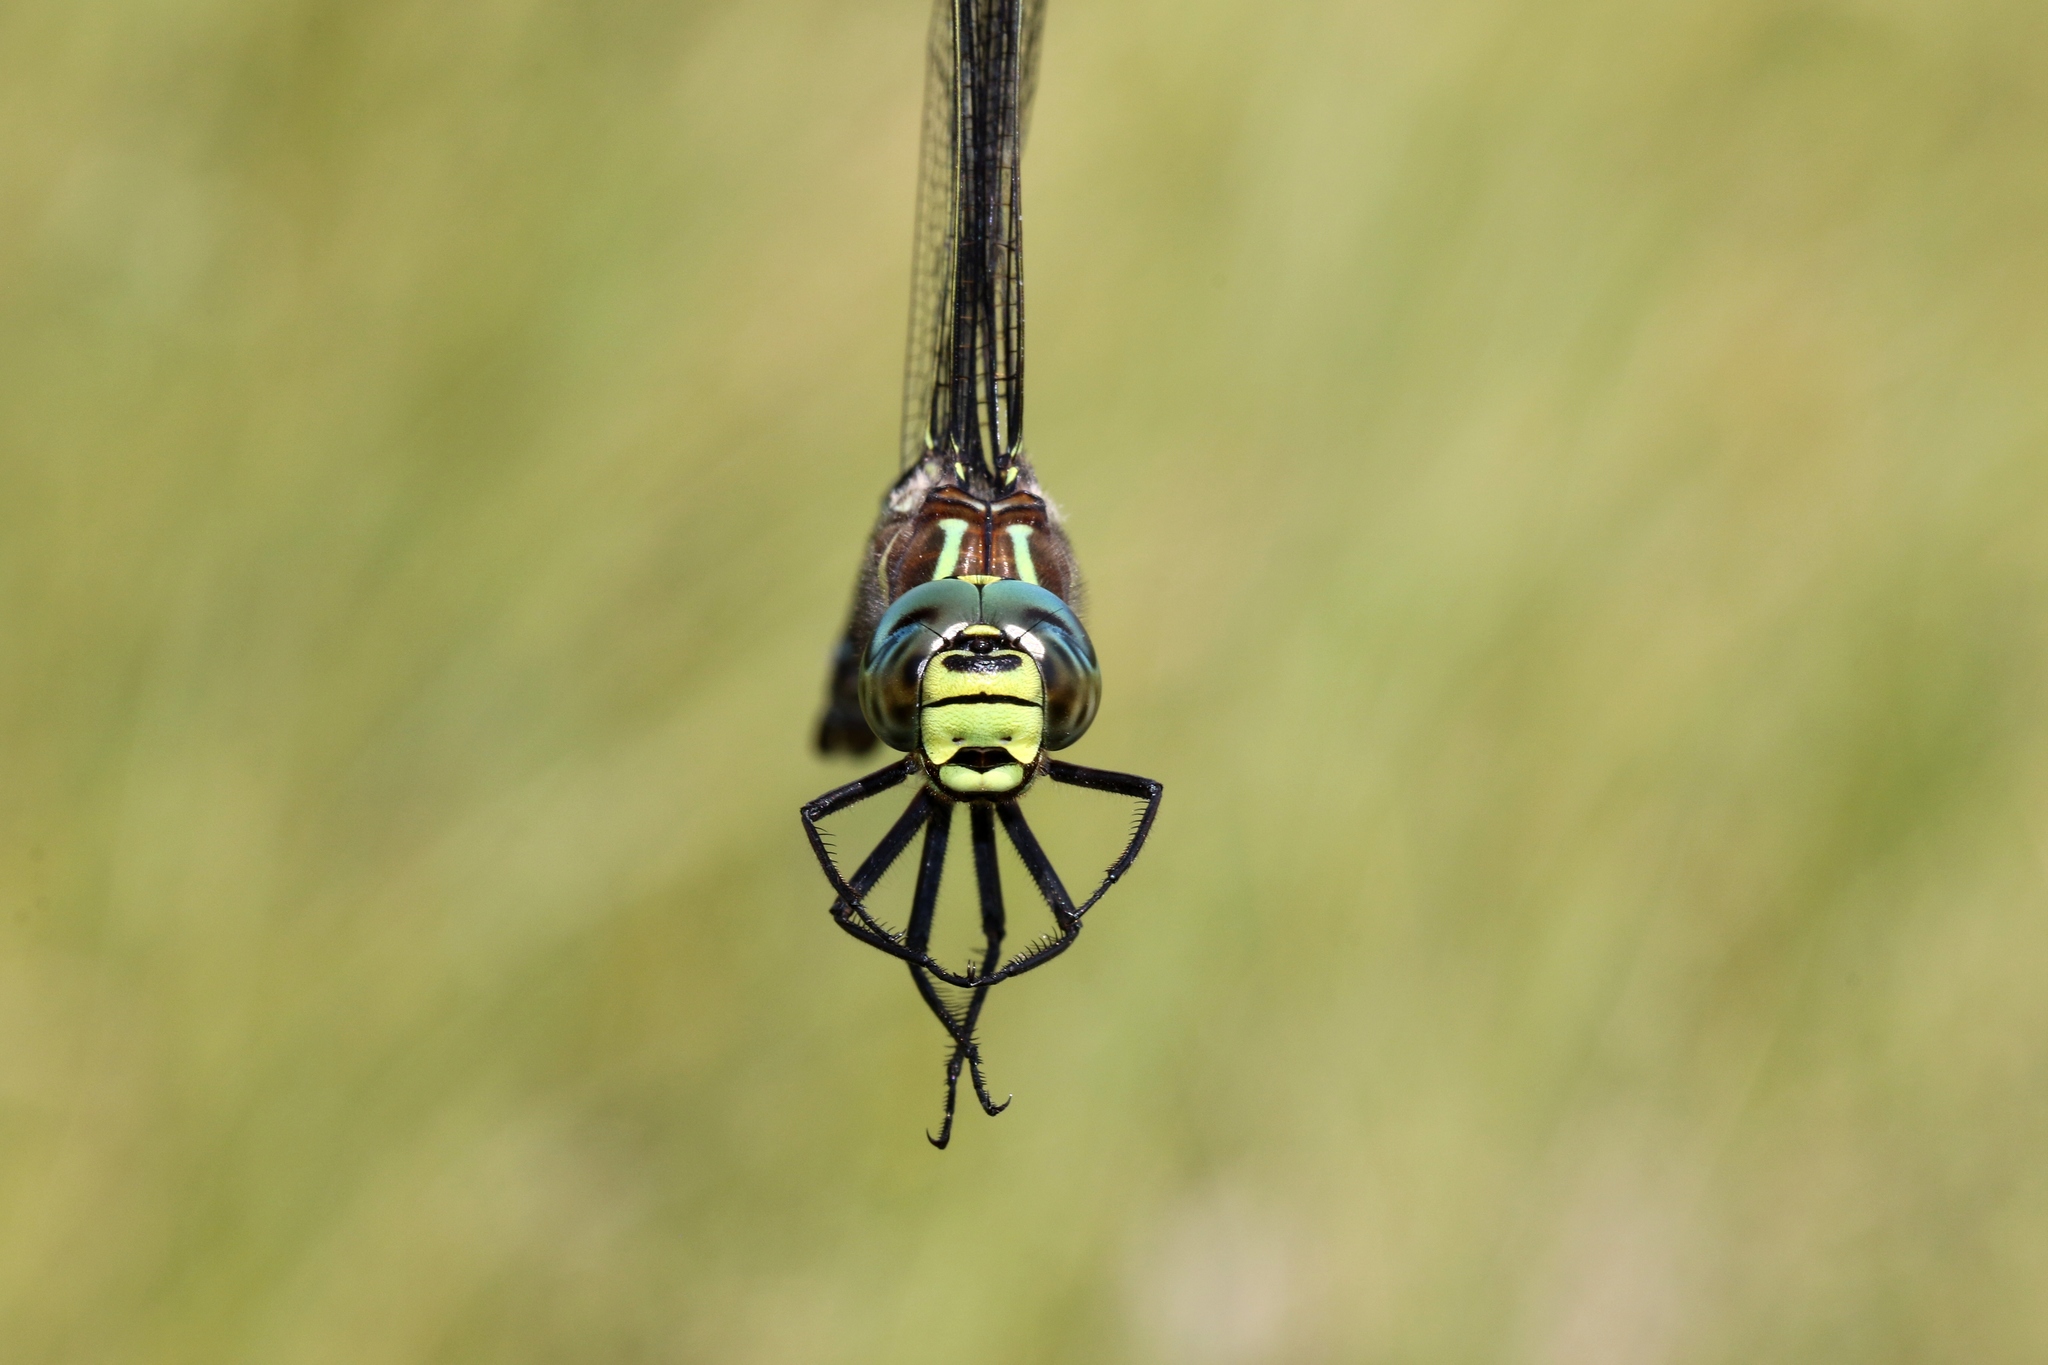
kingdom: Animalia
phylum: Arthropoda
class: Insecta
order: Odonata
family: Aeshnidae
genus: Aeshna
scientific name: Aeshna juncea
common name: Moorland hawker
